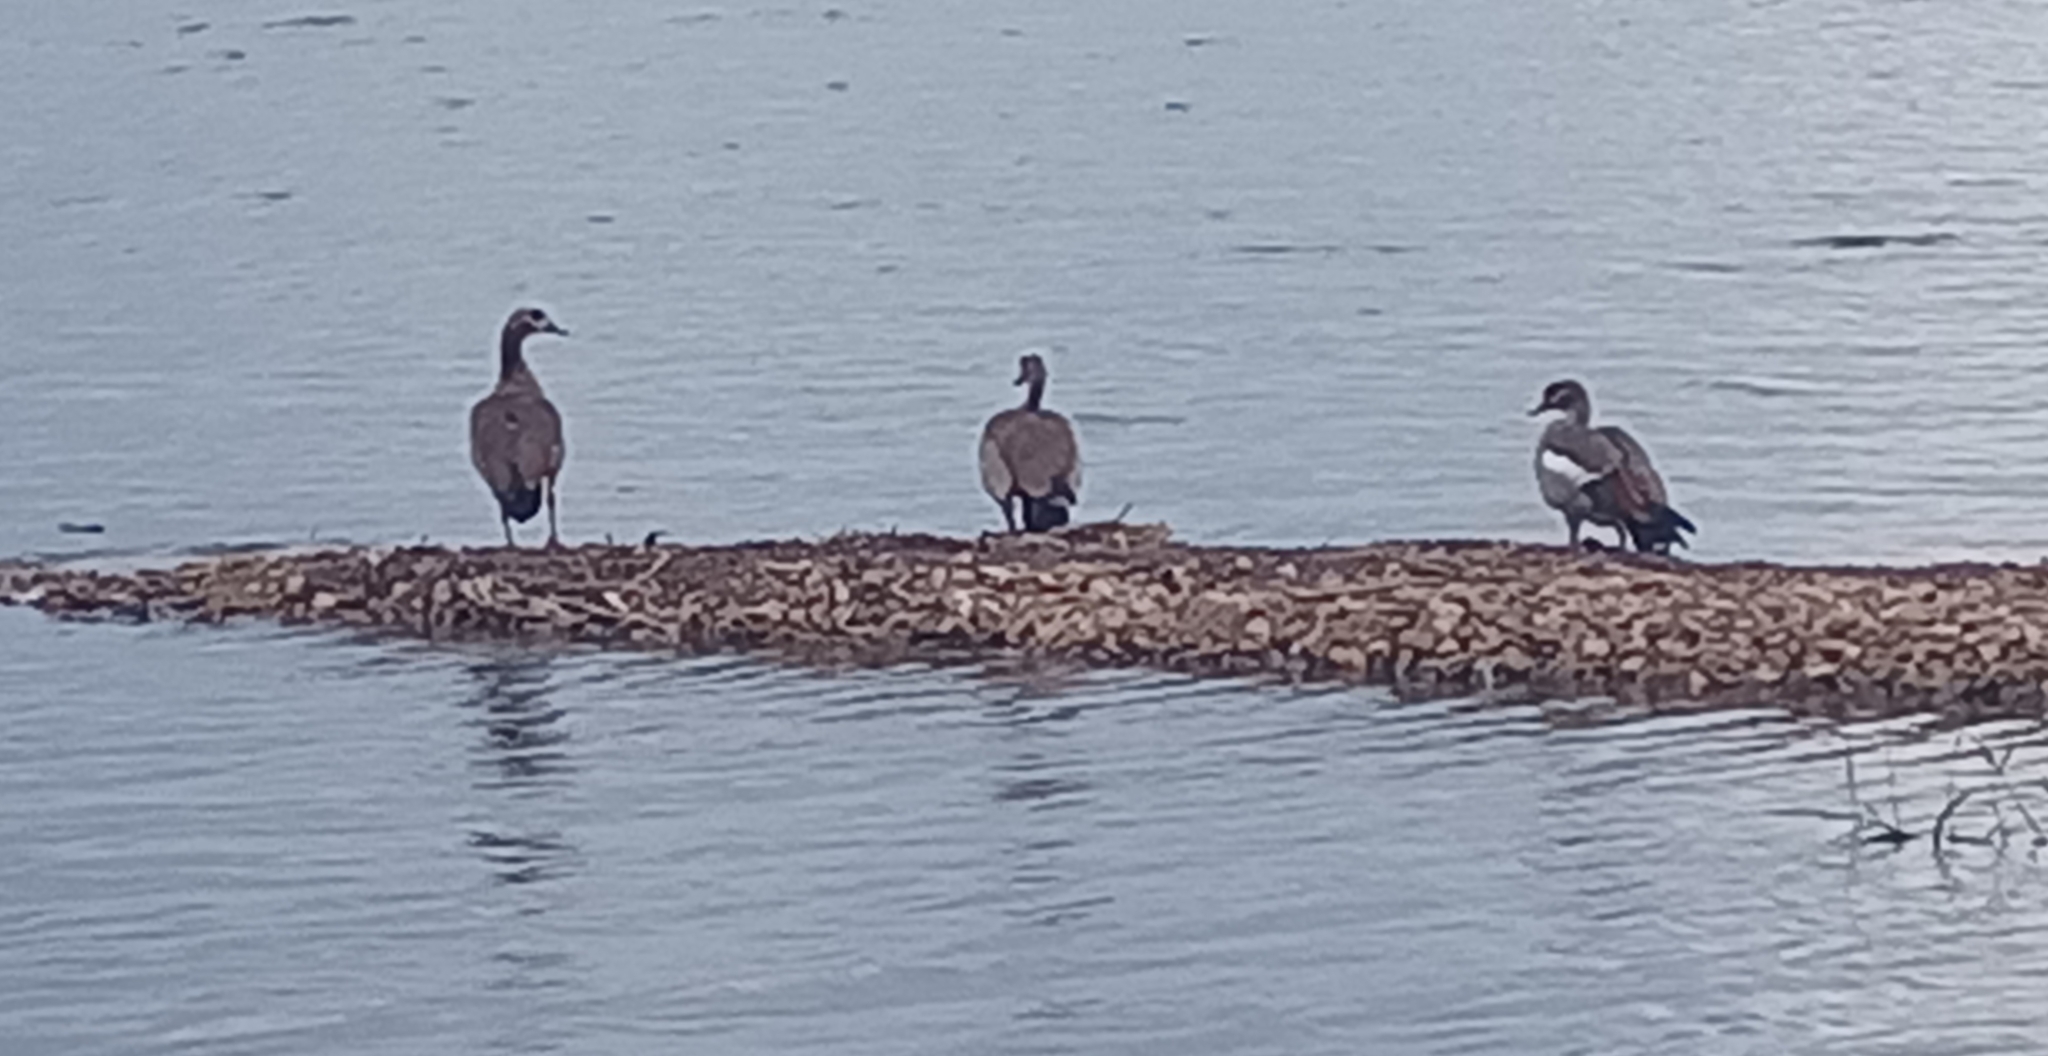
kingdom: Animalia
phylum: Chordata
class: Aves
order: Anseriformes
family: Anatidae
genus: Alopochen
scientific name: Alopochen aegyptiaca
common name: Egyptian goose
